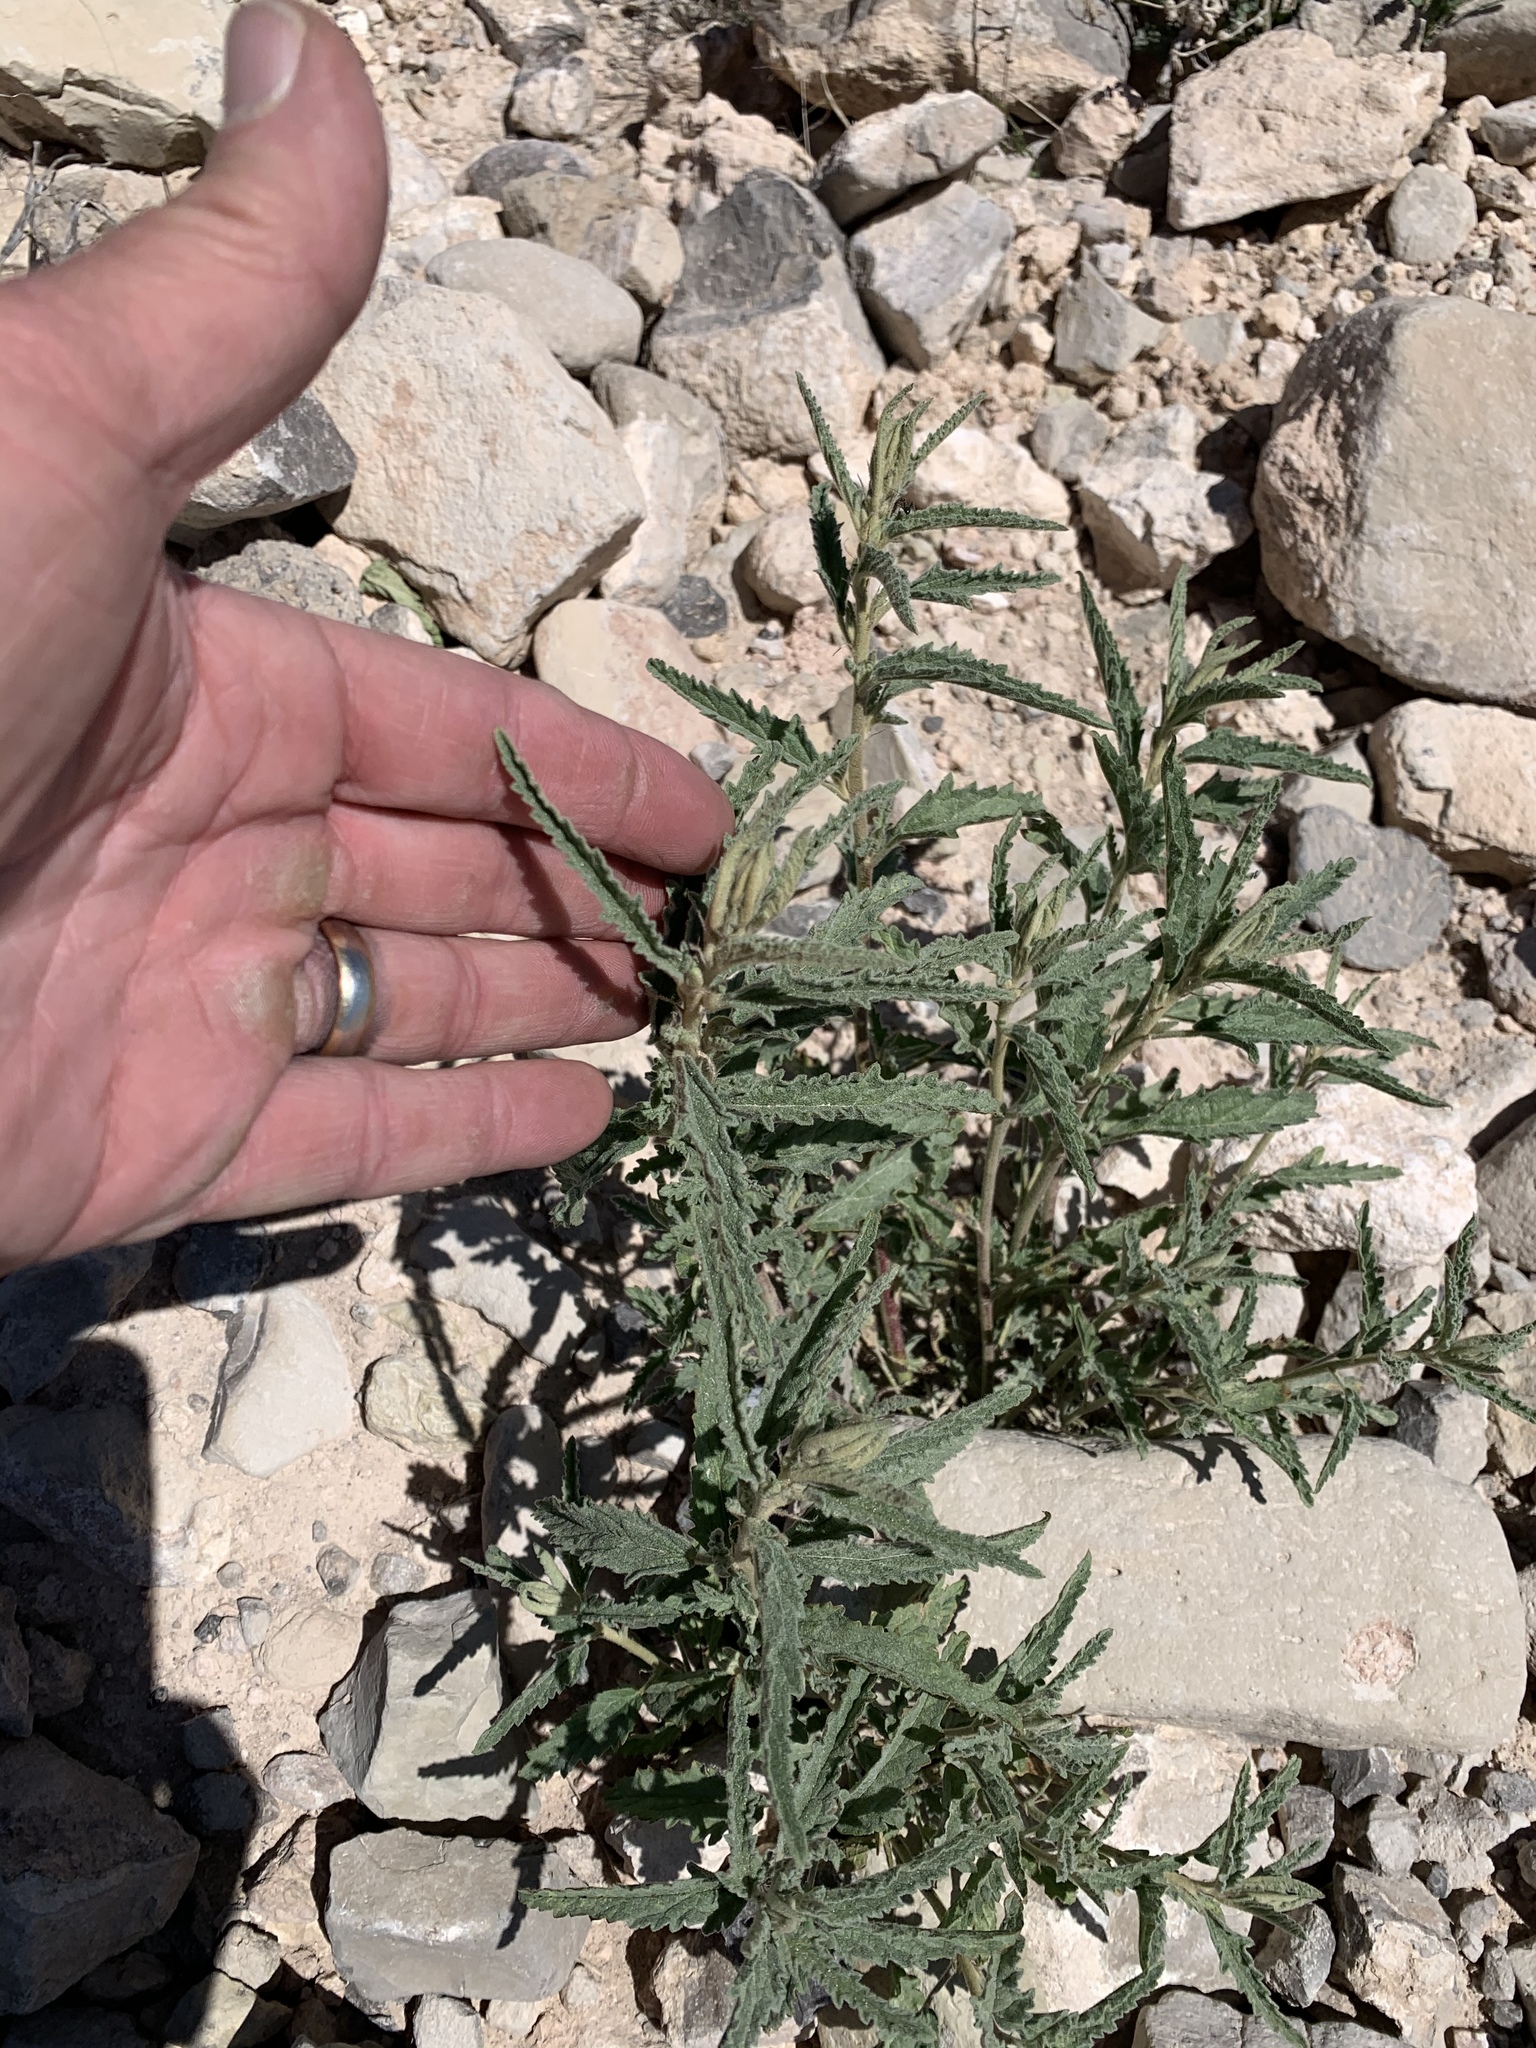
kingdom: Plantae
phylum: Tracheophyta
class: Magnoliopsida
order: Malvales
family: Malvaceae
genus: Sphaeralcea
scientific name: Sphaeralcea angustifolia
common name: Copper globe-mallow
